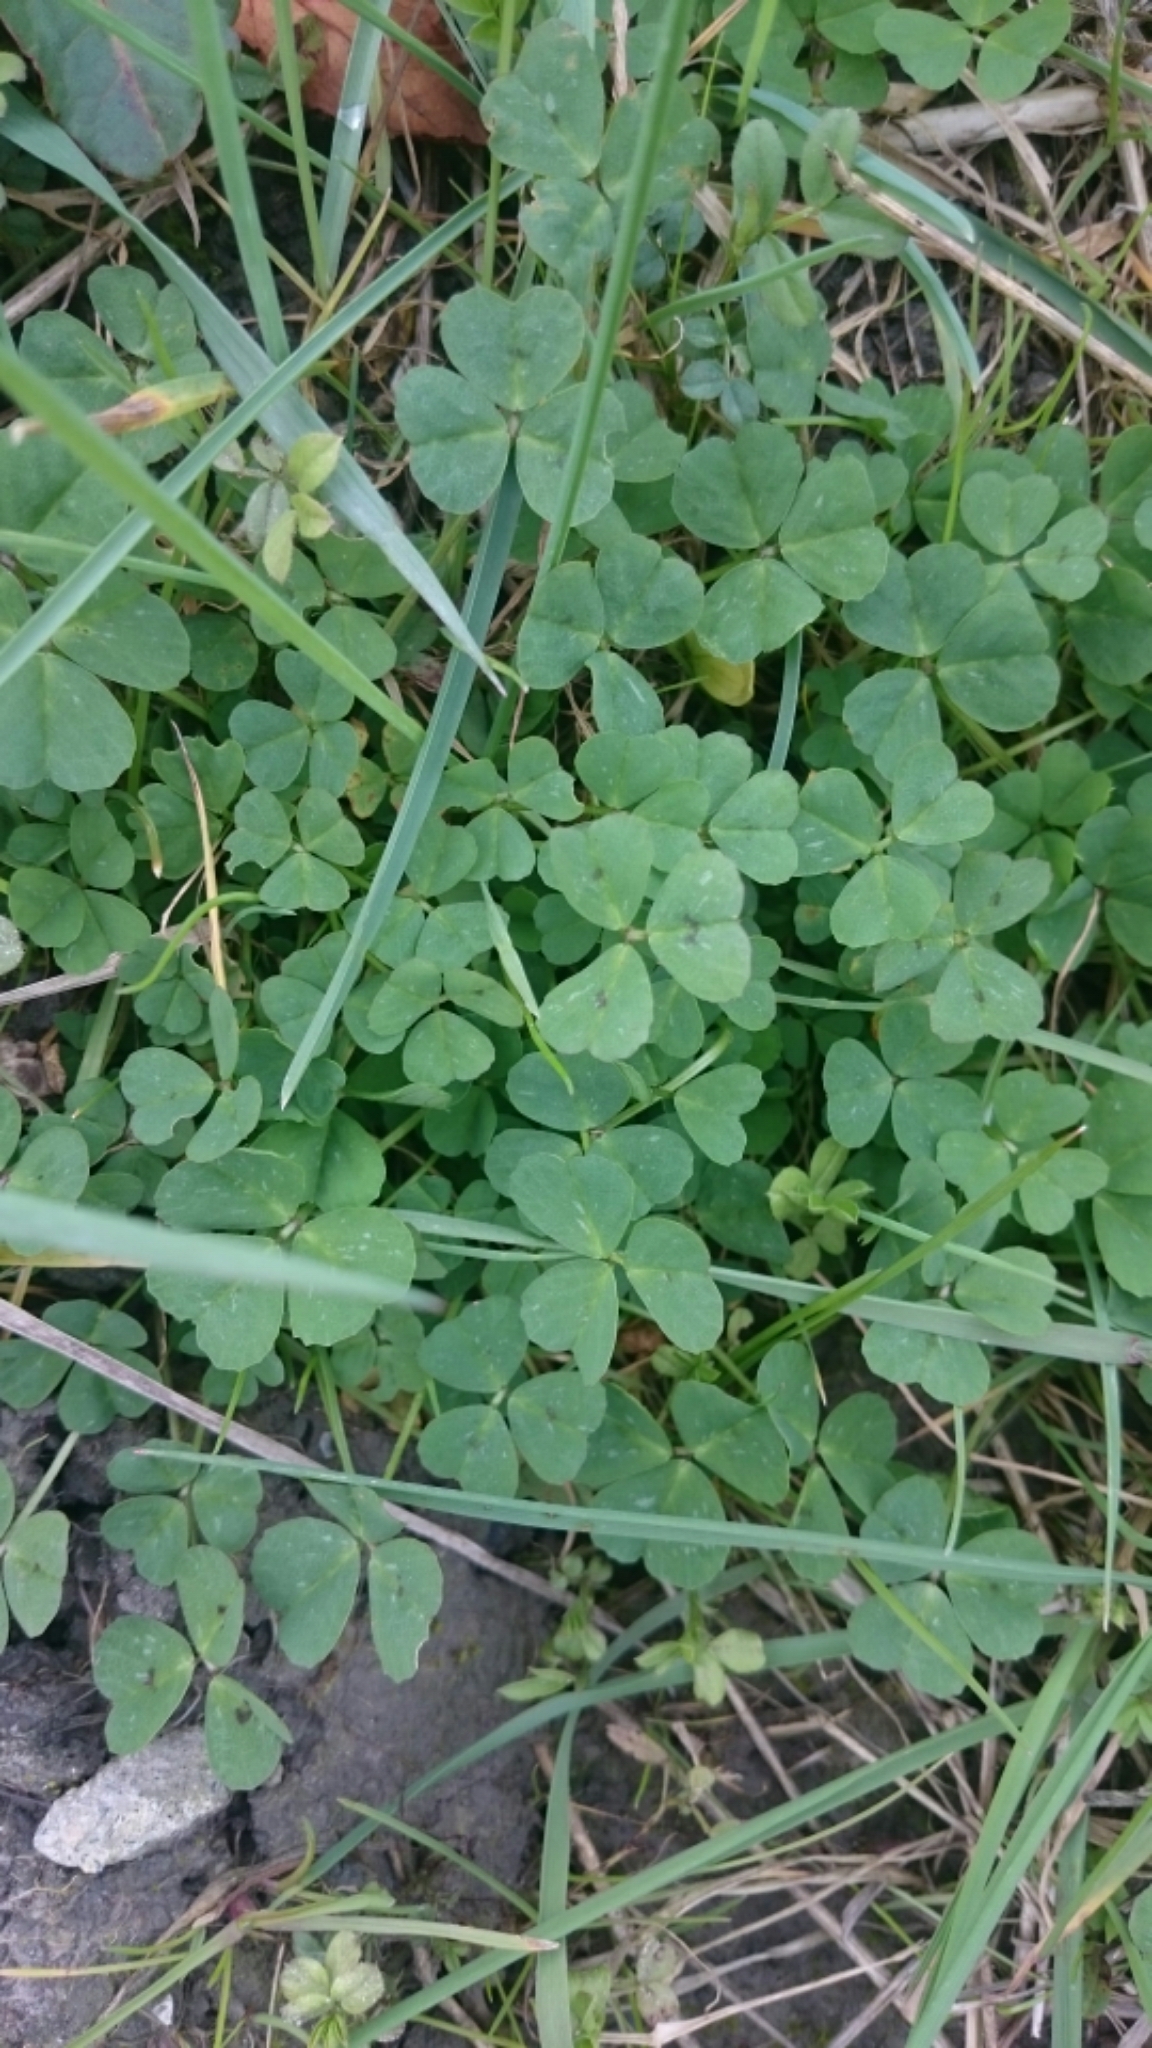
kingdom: Plantae
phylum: Tracheophyta
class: Magnoliopsida
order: Fabales
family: Fabaceae
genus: Medicago
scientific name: Medicago arabica
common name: Spotted medick
